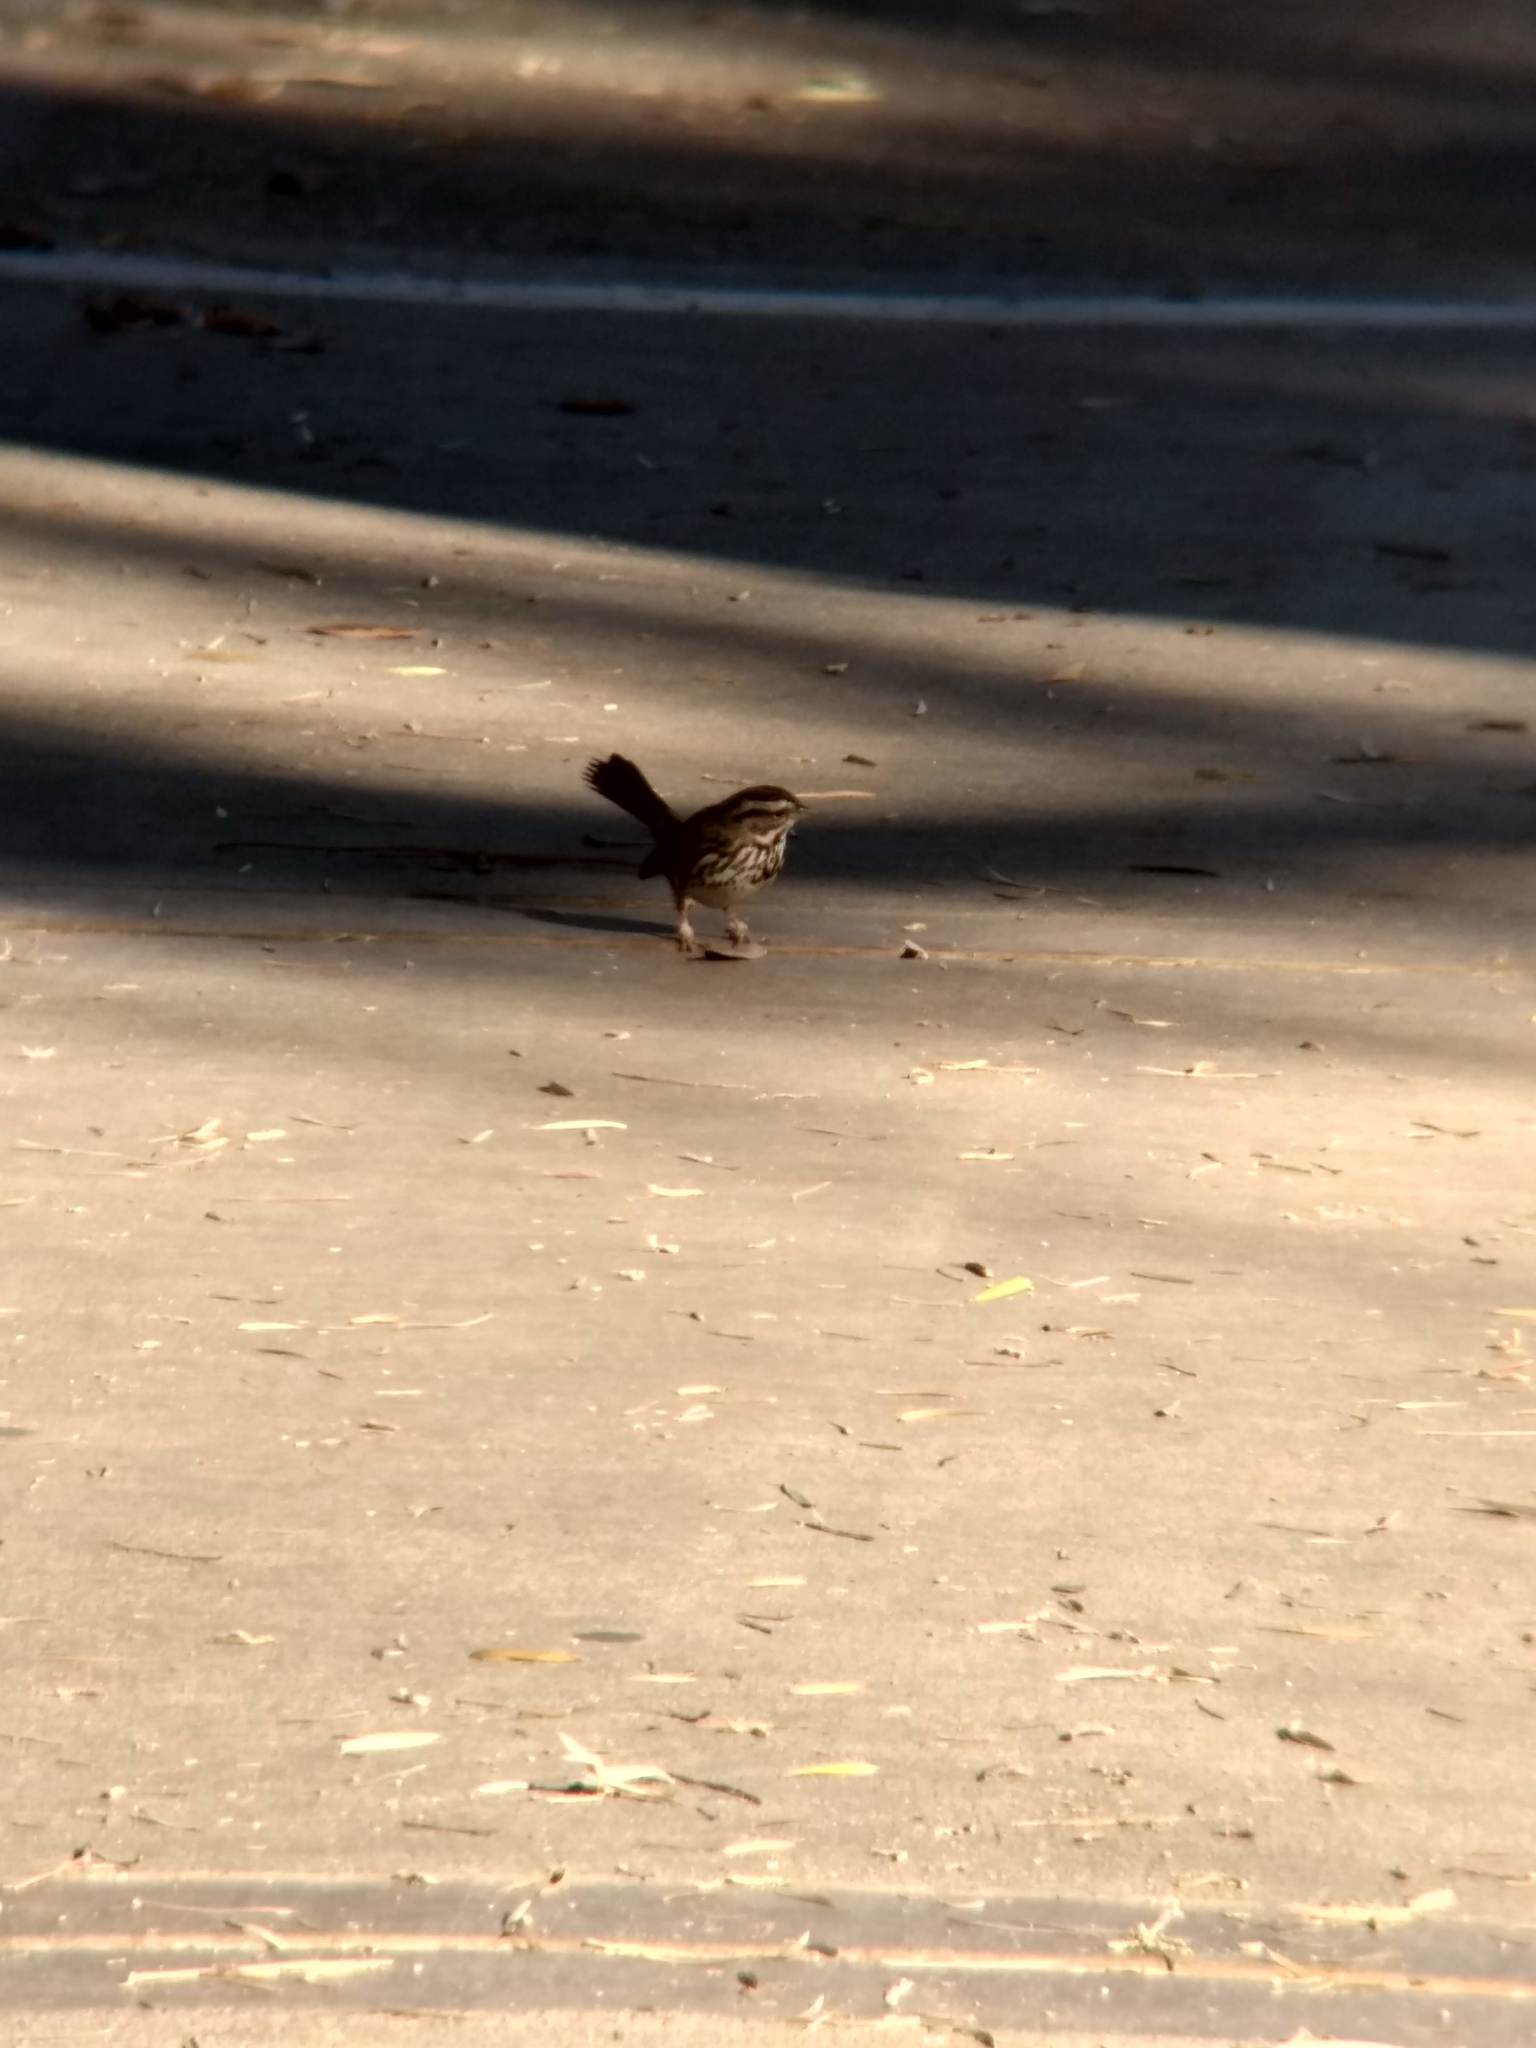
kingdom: Animalia
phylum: Chordata
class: Aves
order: Passeriformes
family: Passerellidae
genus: Melospiza
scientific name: Melospiza melodia
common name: Song sparrow
